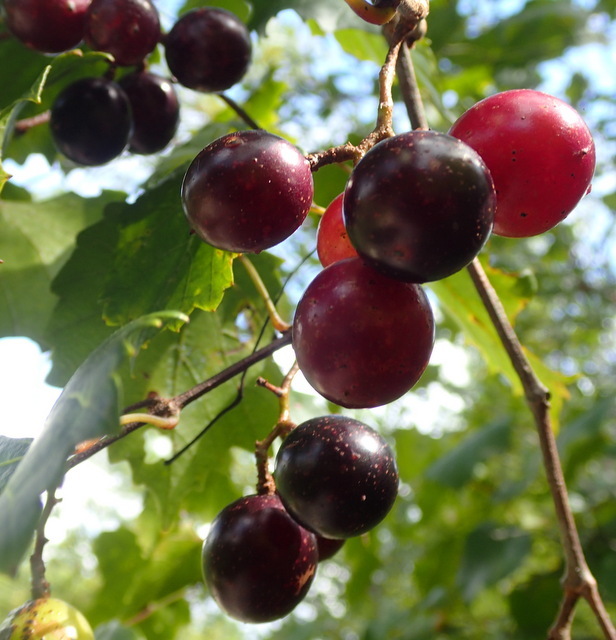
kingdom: Plantae
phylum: Tracheophyta
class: Magnoliopsida
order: Vitales
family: Vitaceae
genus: Vitis
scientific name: Vitis rotundifolia
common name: Muscadine grape
